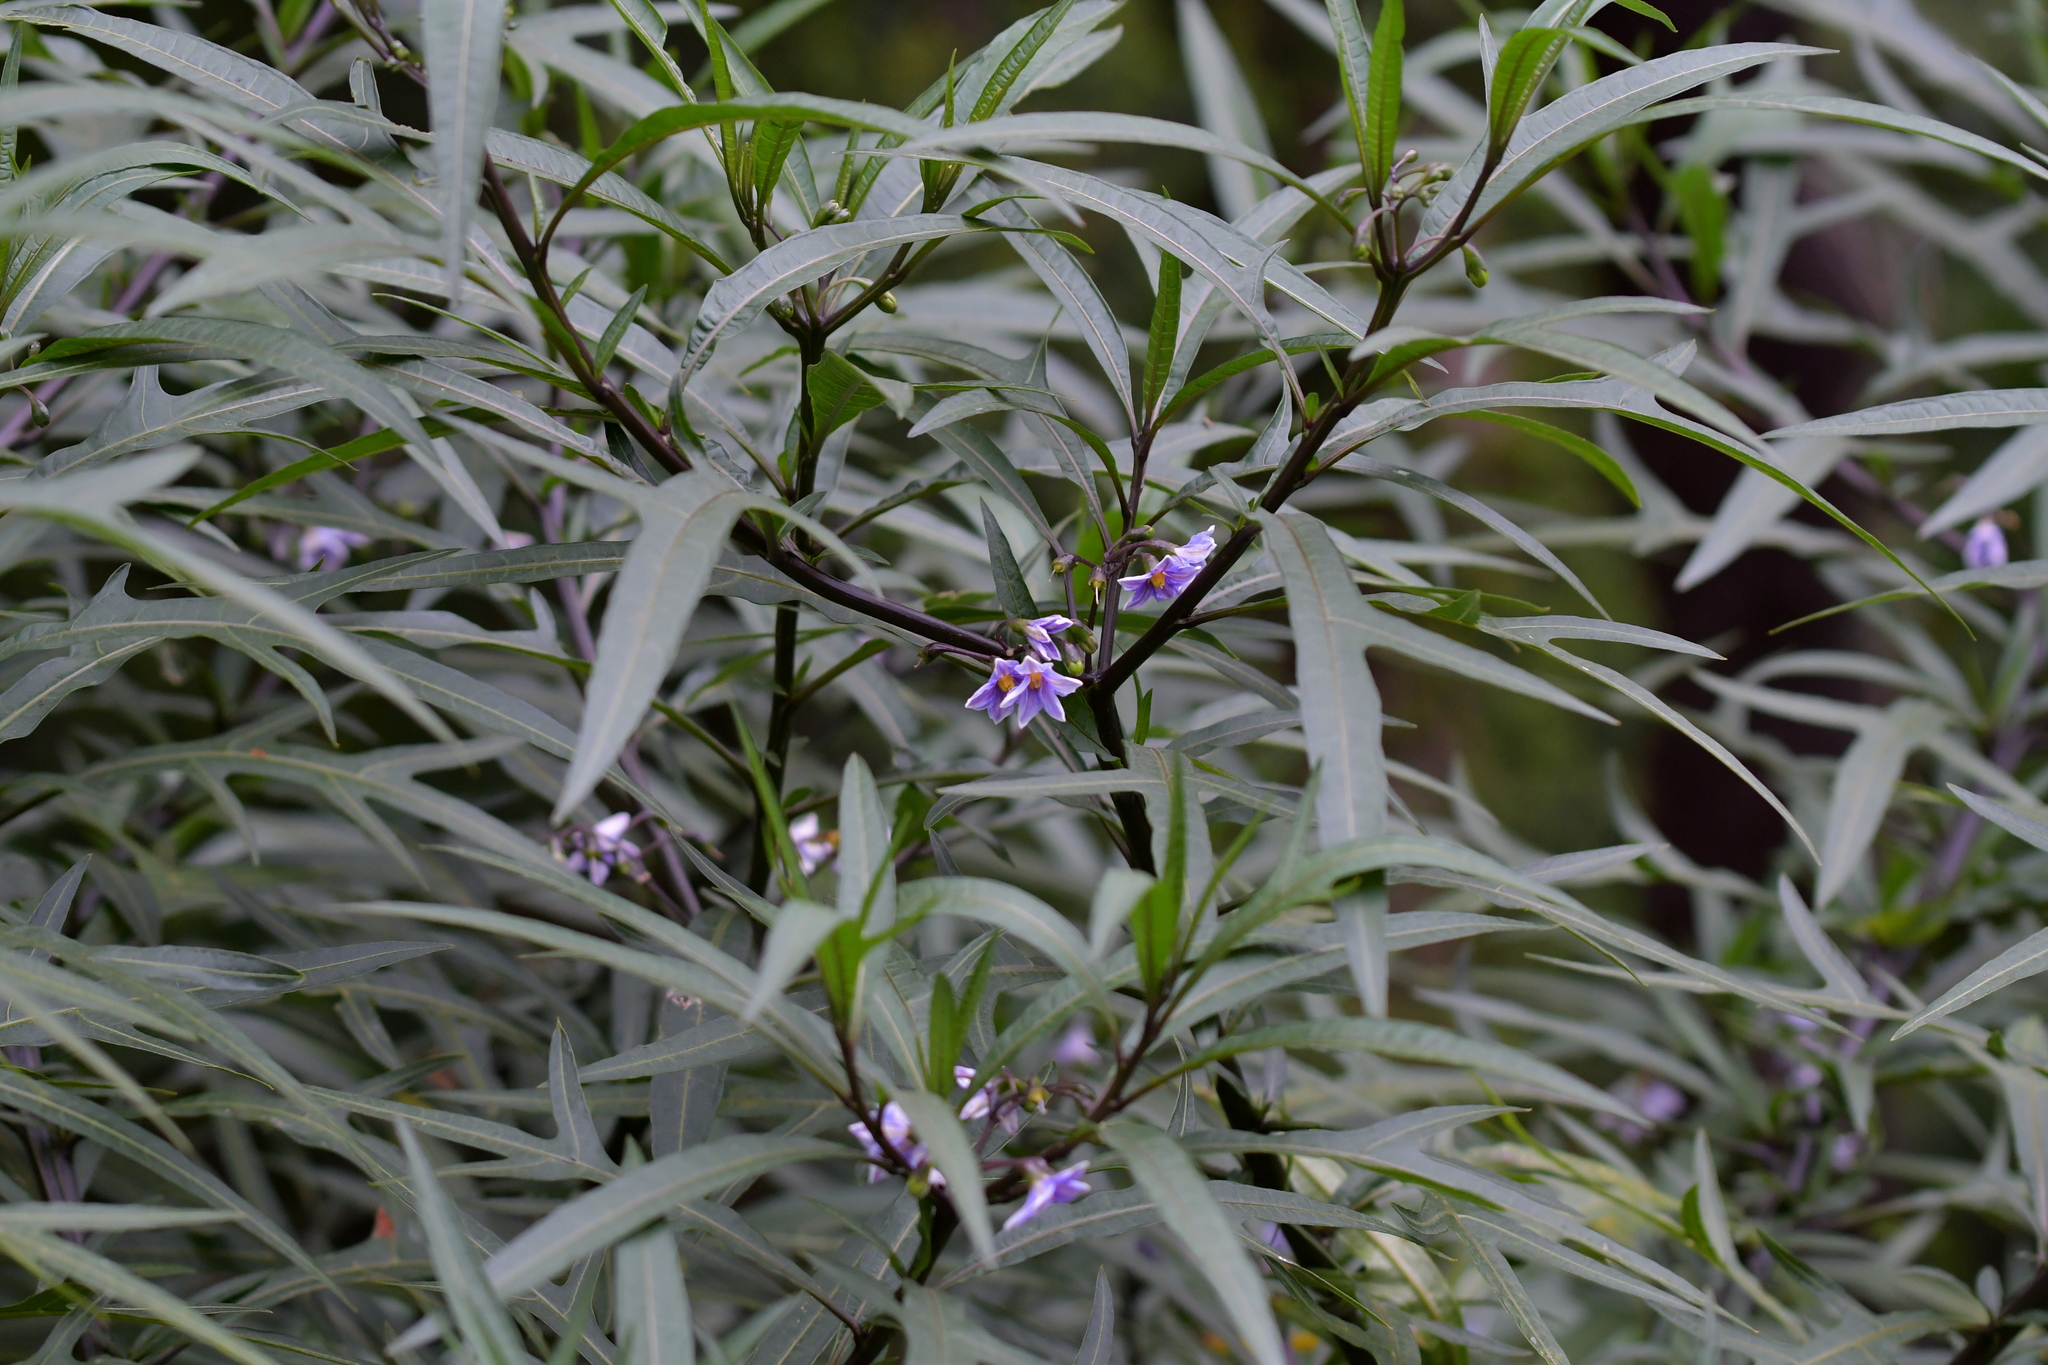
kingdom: Plantae
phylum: Tracheophyta
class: Magnoliopsida
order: Solanales
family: Solanaceae
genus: Solanum
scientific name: Solanum aviculare
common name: New zealand nightshade
